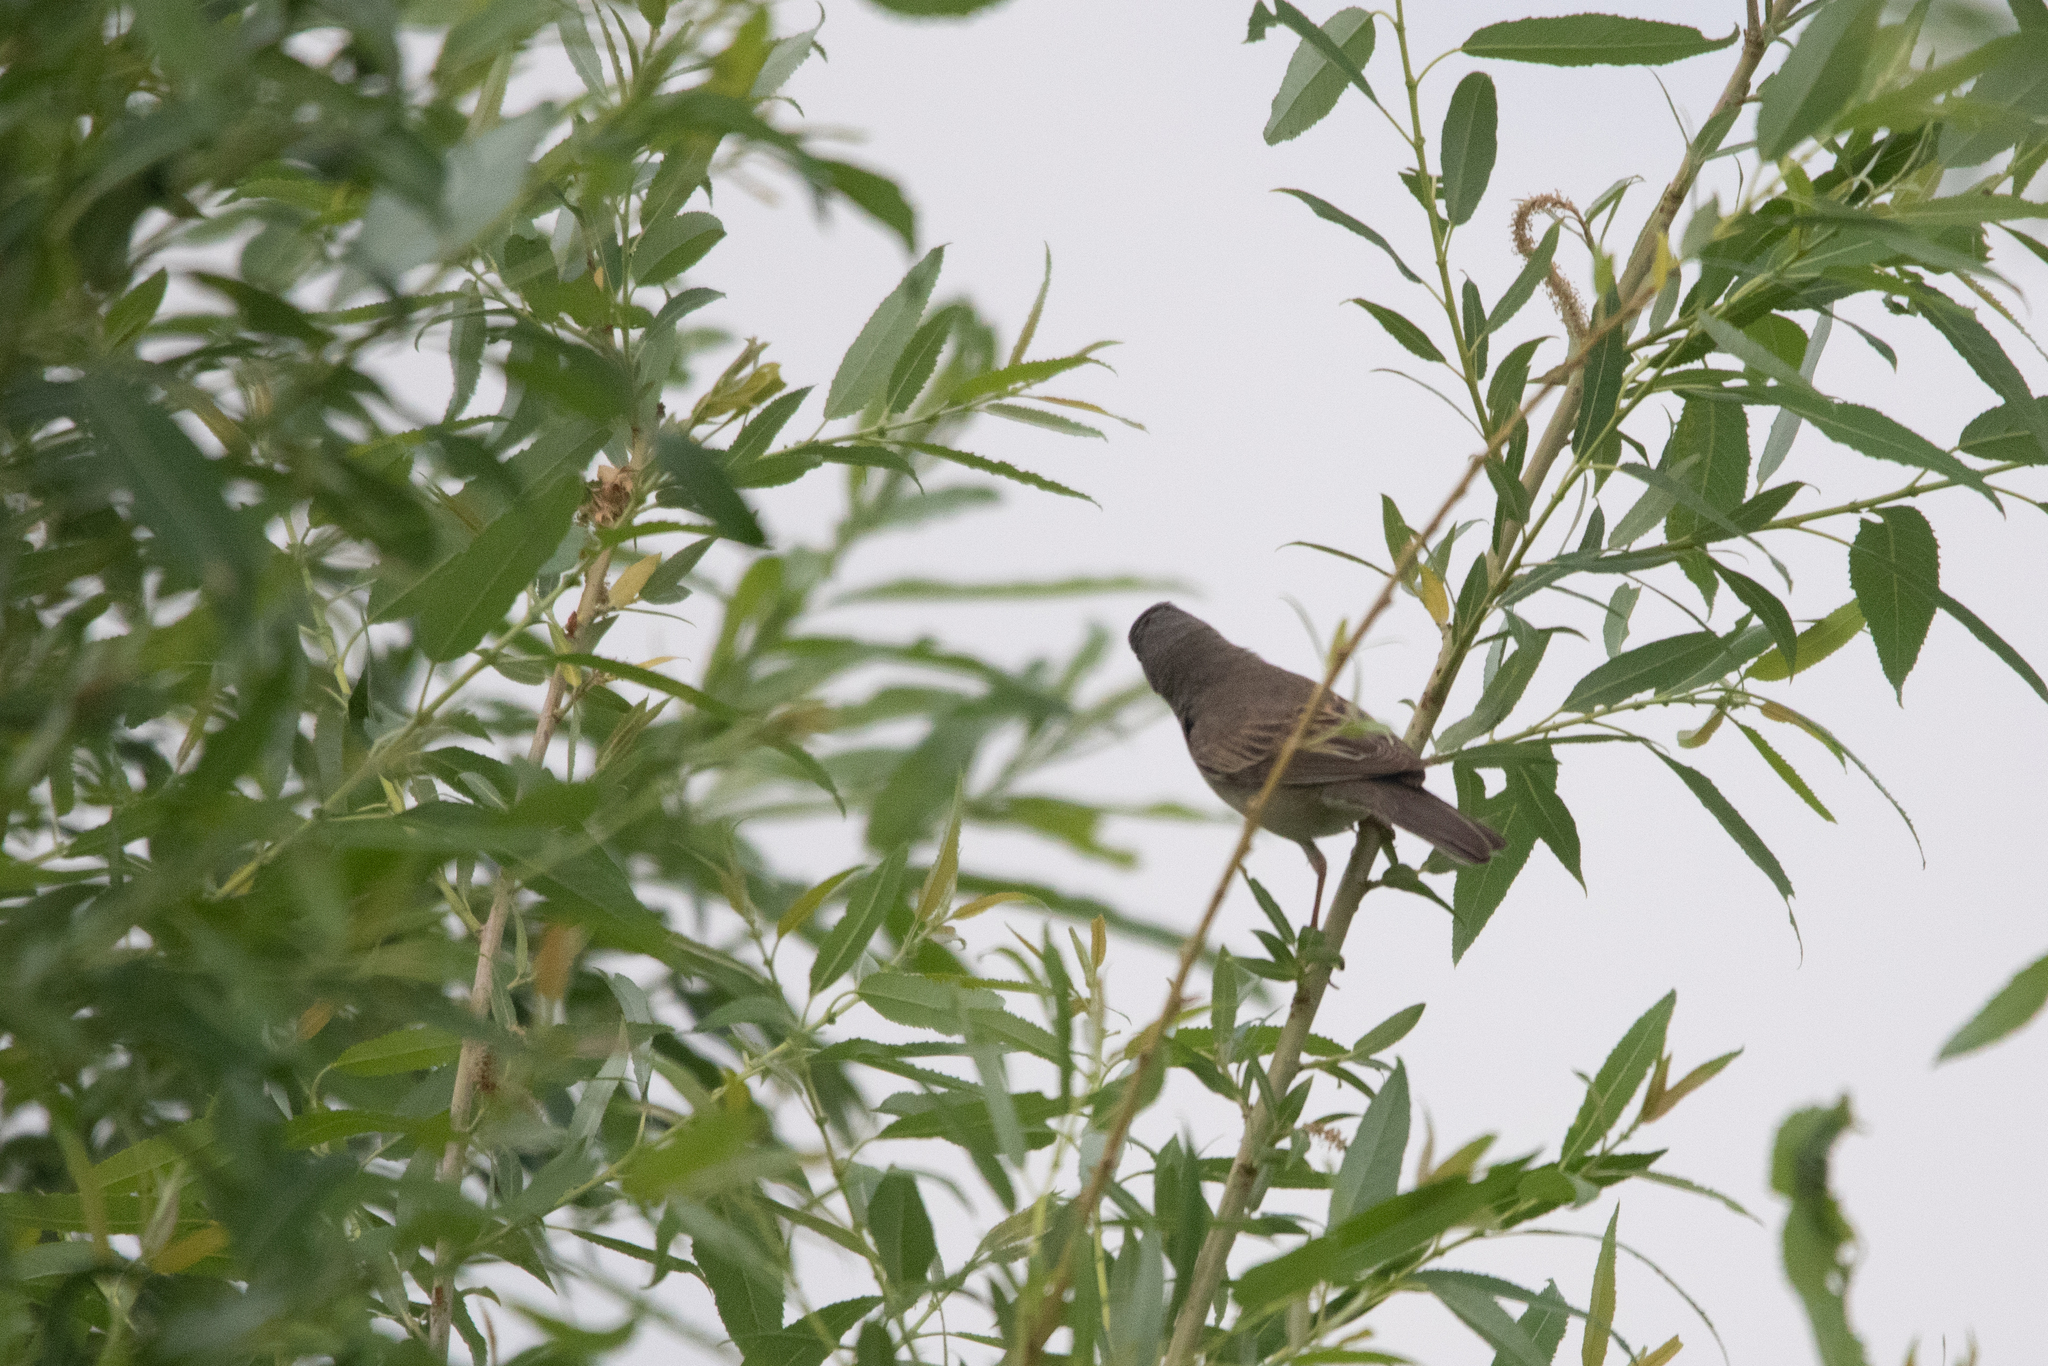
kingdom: Animalia
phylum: Chordata
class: Aves
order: Passeriformes
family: Sylviidae
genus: Sylvia
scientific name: Sylvia communis
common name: Common whitethroat
